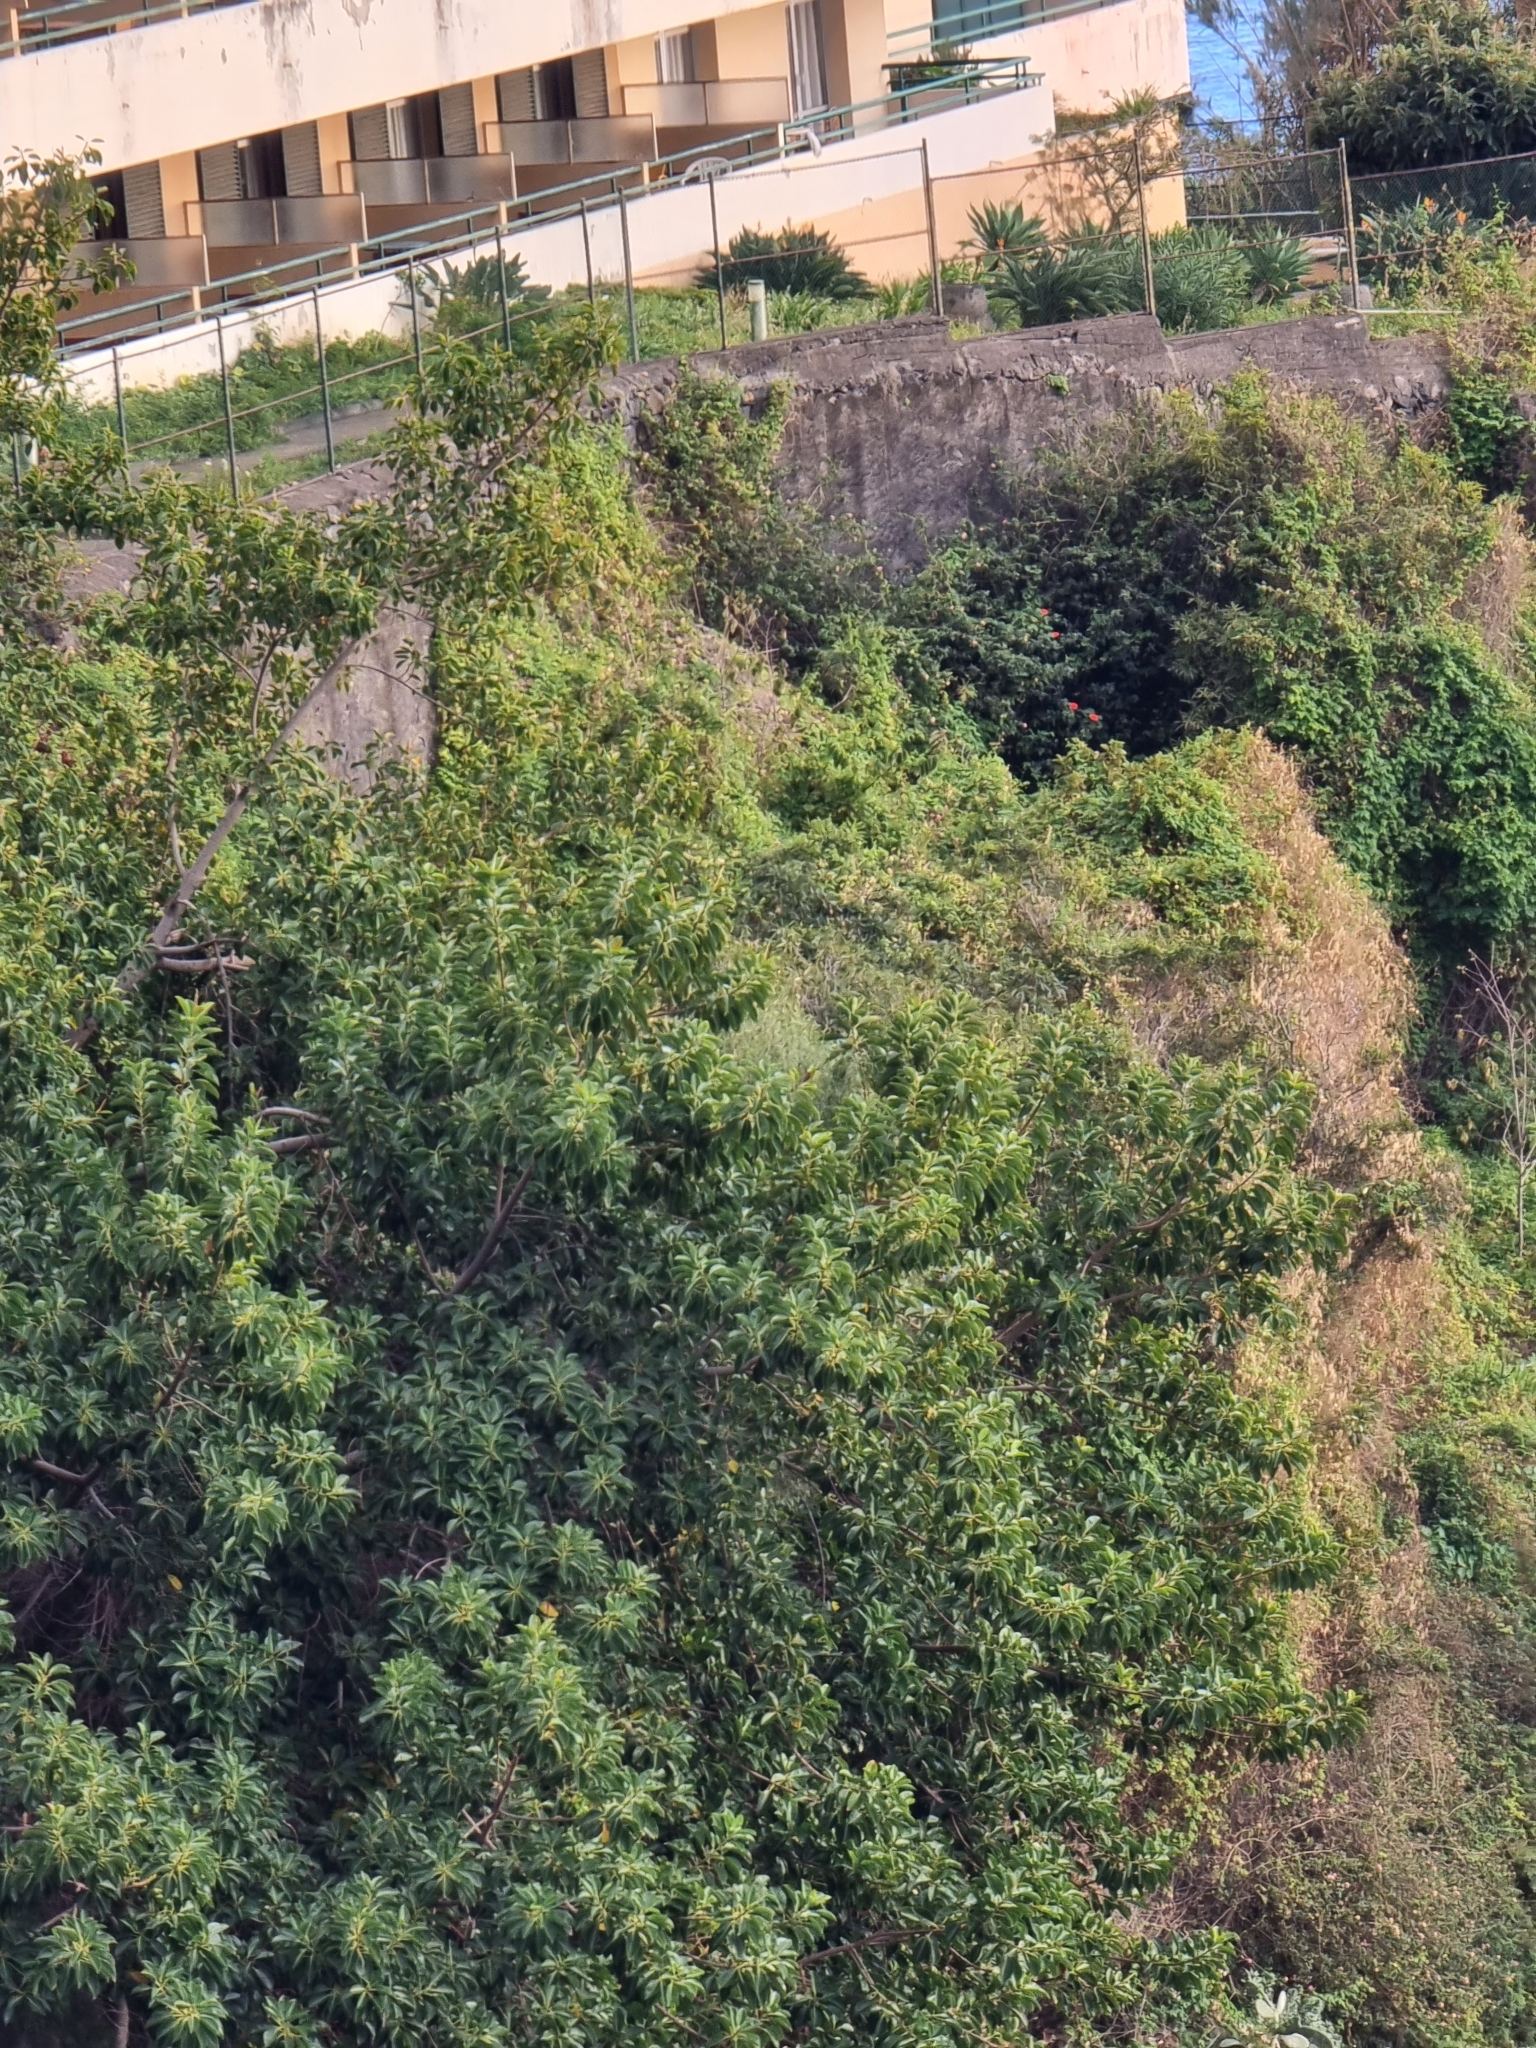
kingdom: Plantae
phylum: Tracheophyta
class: Magnoliopsida
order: Rosales
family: Moraceae
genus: Ficus
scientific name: Ficus elastica
